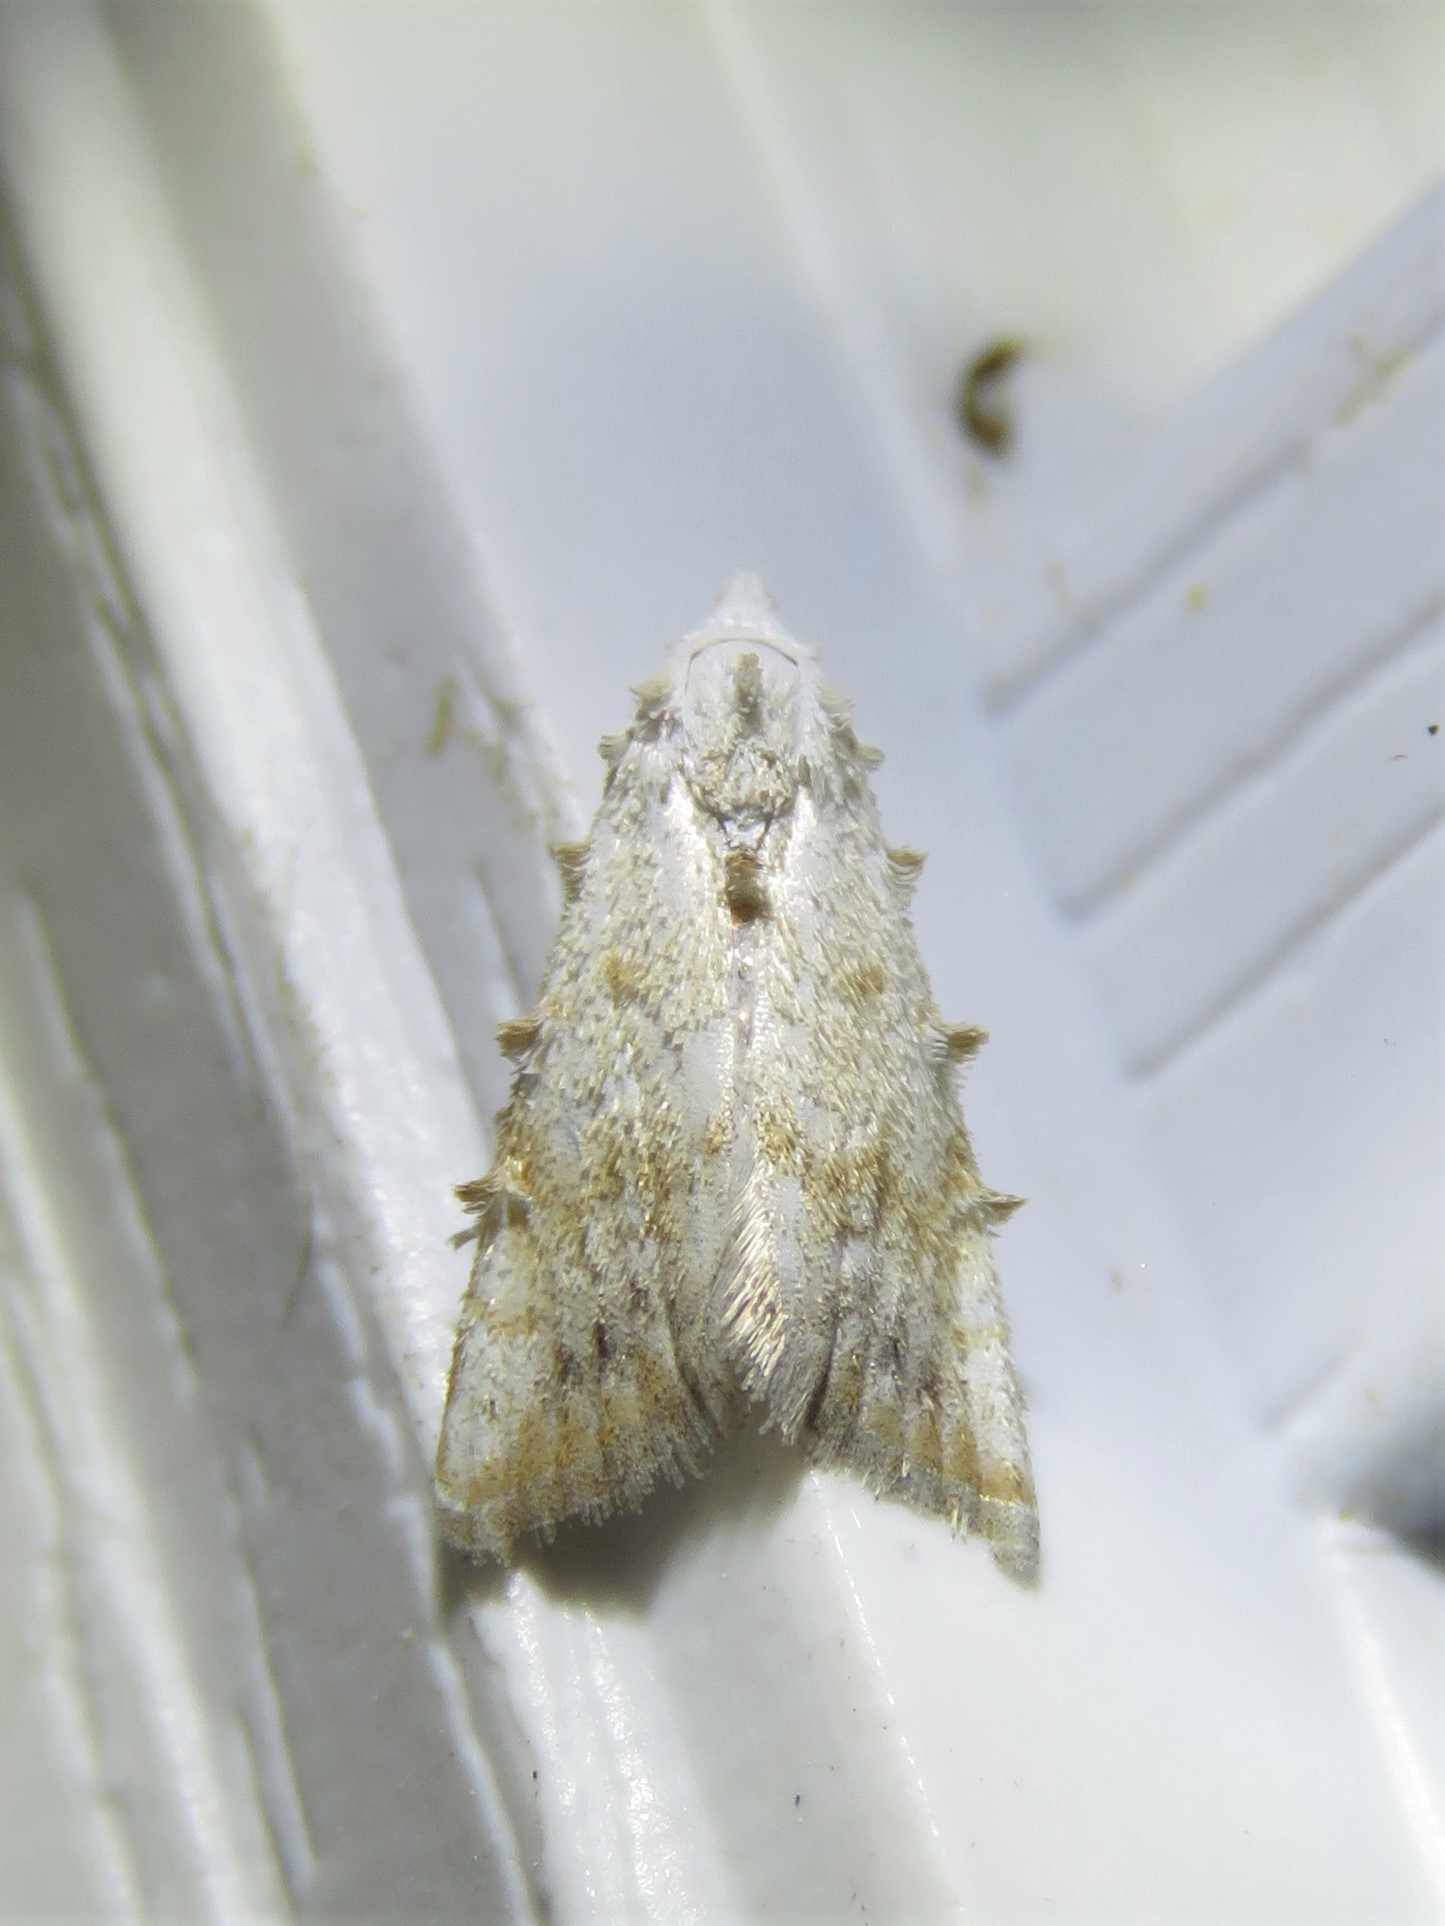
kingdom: Animalia
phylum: Arthropoda
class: Insecta
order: Lepidoptera
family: Nolidae
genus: Nola
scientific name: Nola cereella
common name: Sorghum webworm moth
